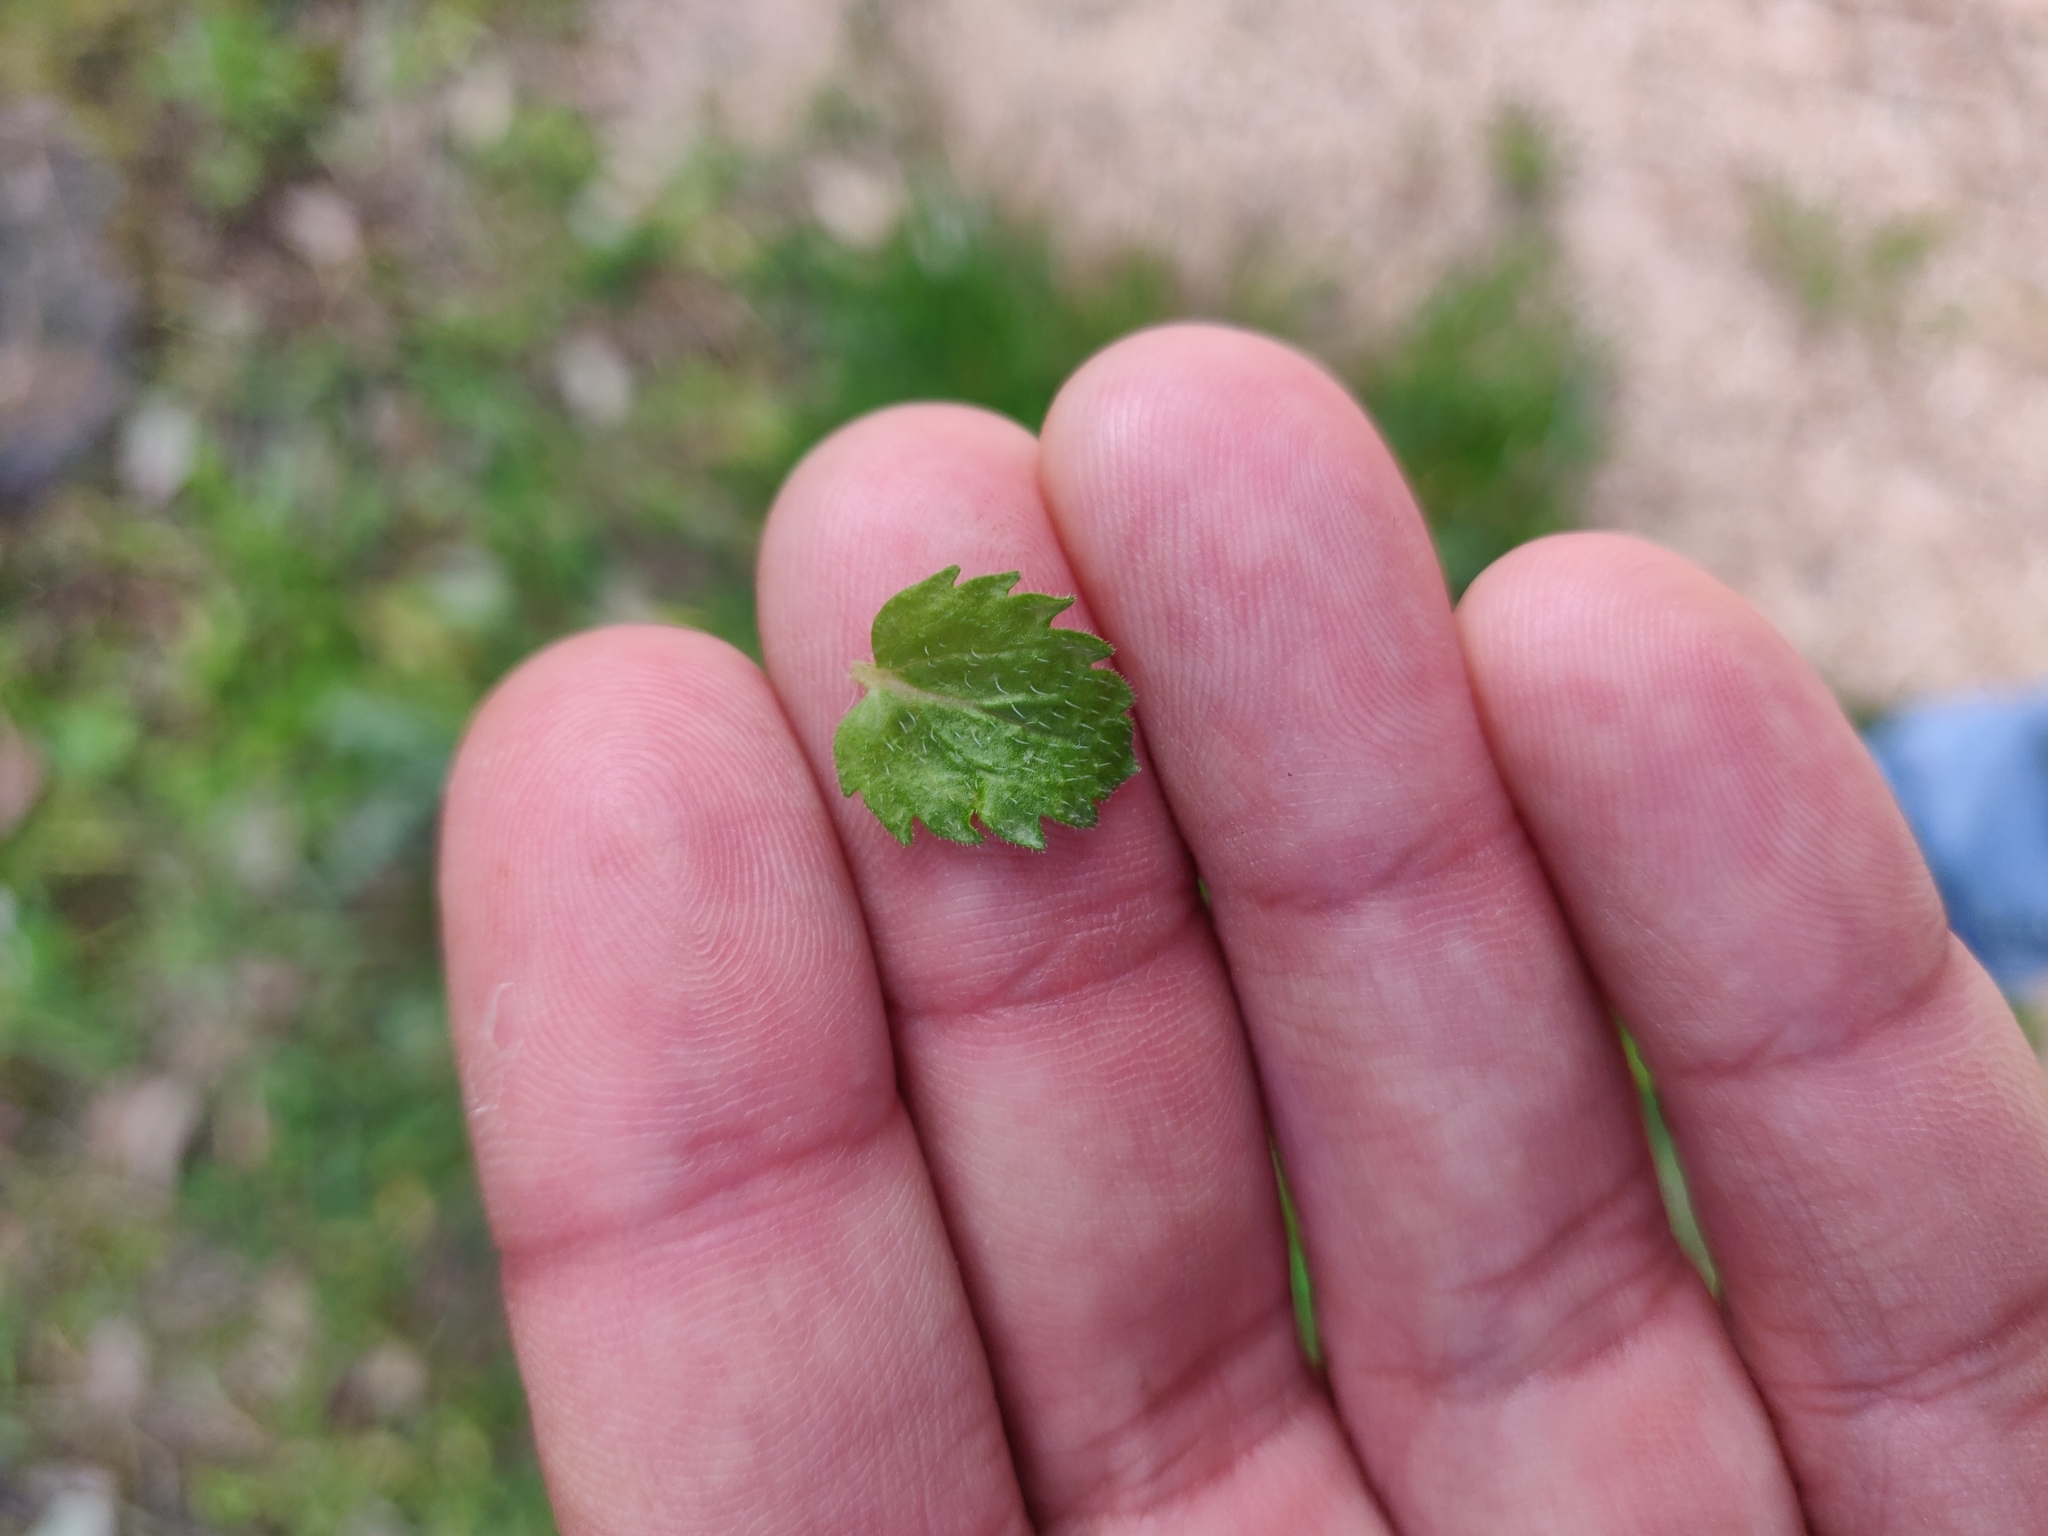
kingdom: Plantae
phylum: Tracheophyta
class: Magnoliopsida
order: Lamiales
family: Plantaginaceae
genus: Veronica
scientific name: Veronica persica
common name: Common field-speedwell
